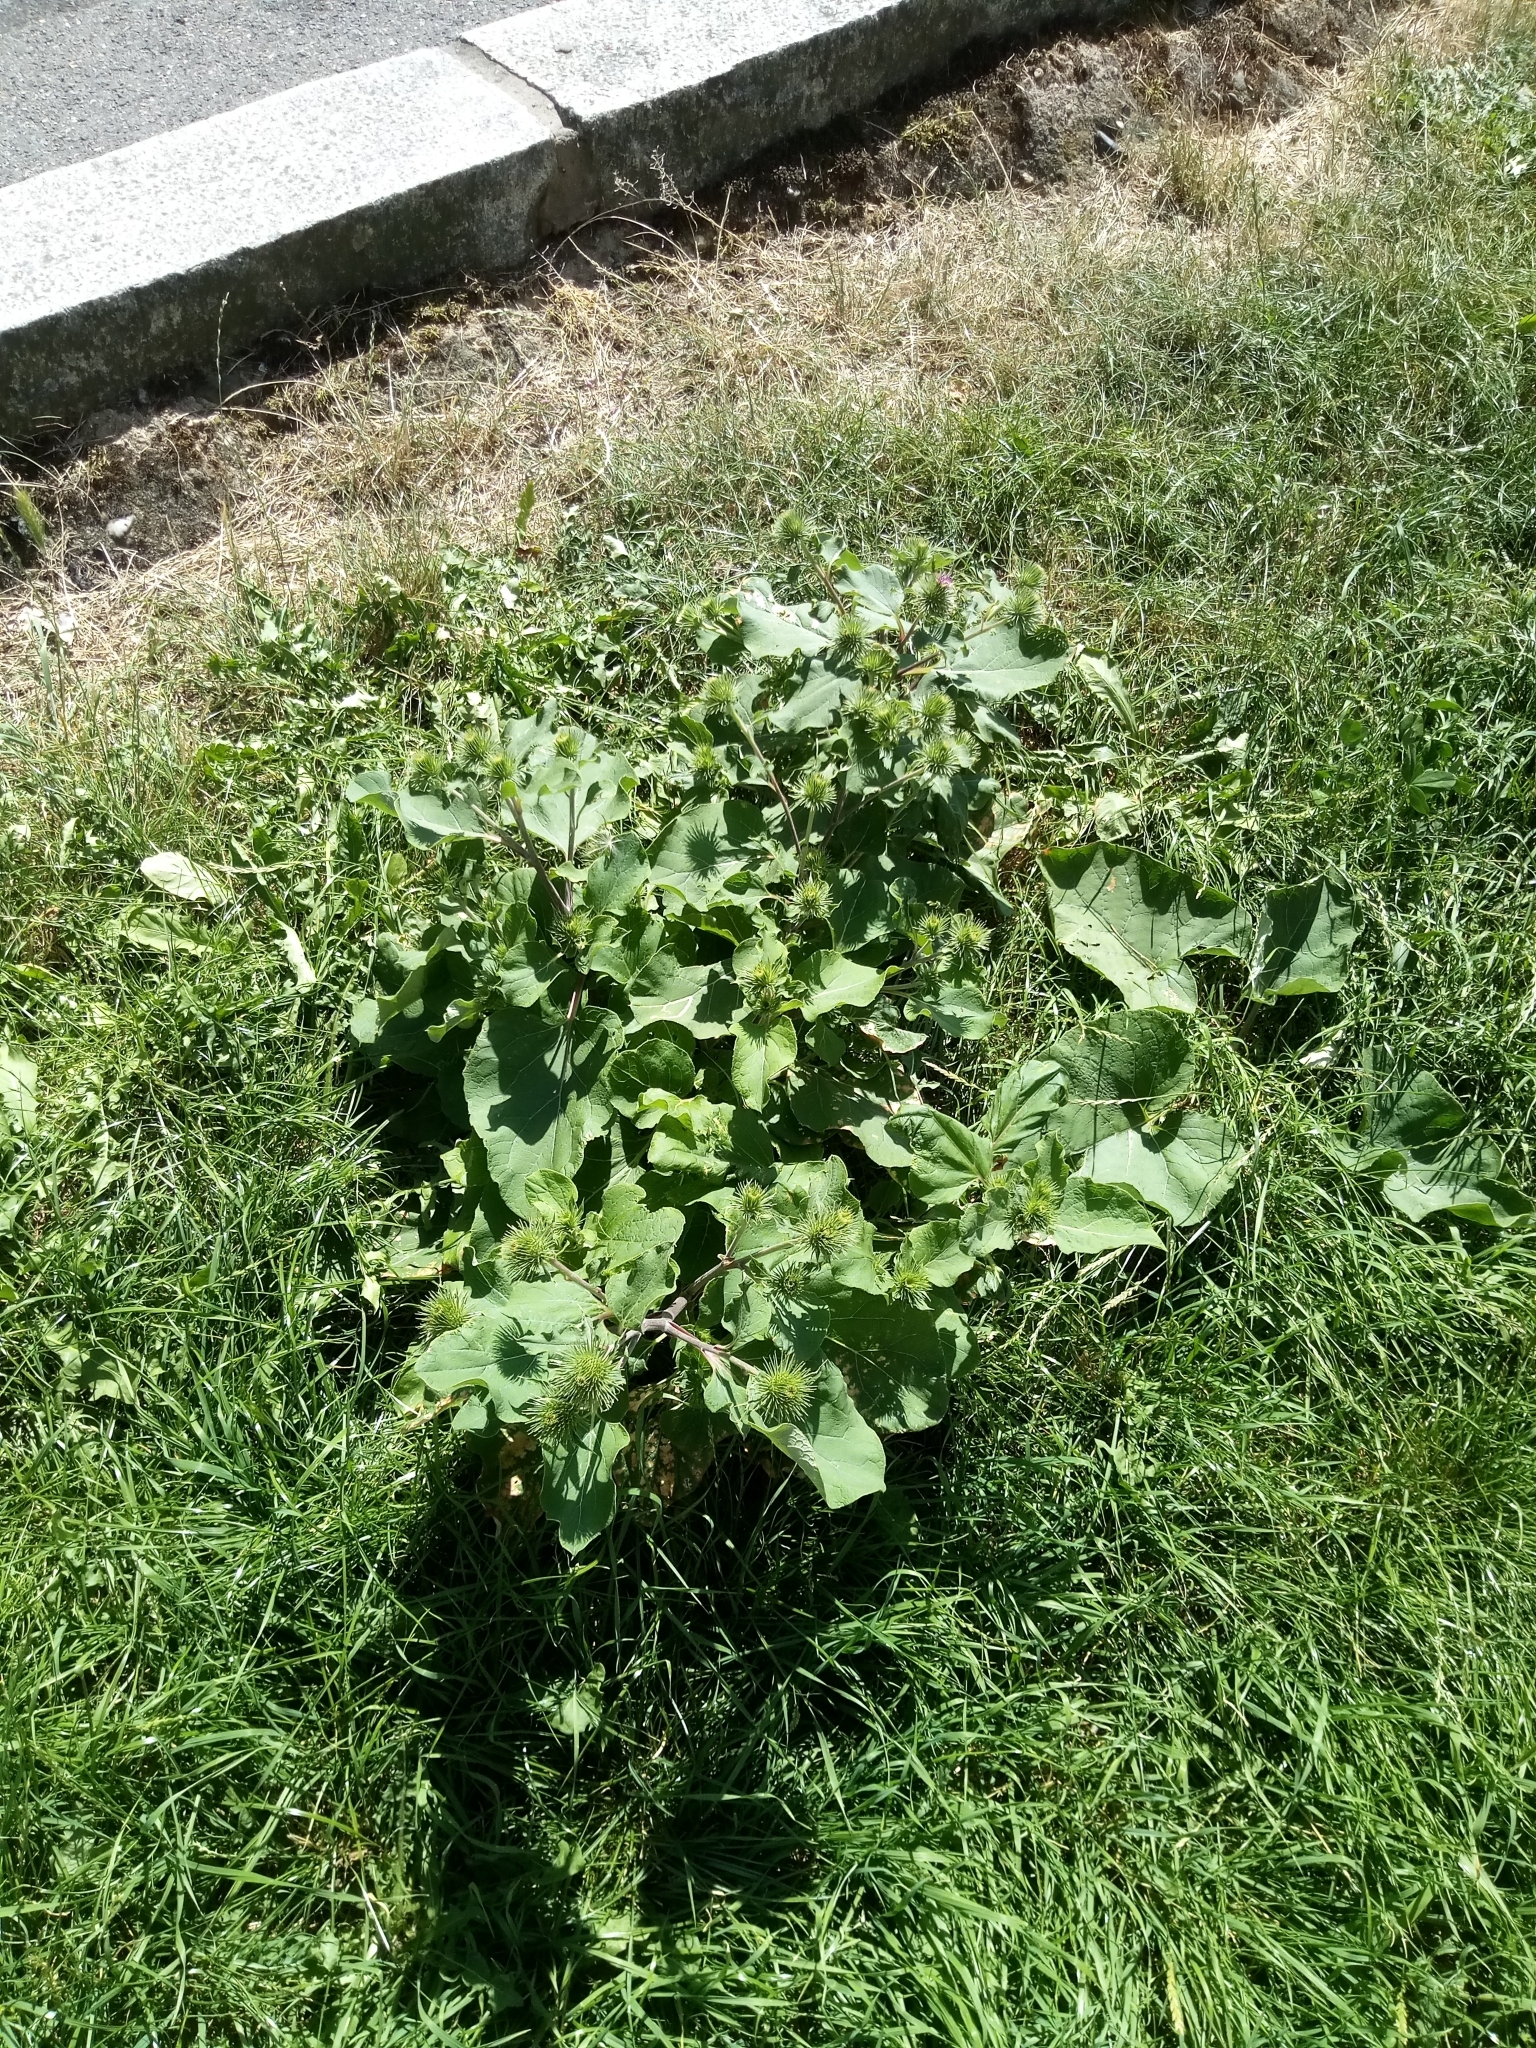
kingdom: Plantae
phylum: Tracheophyta
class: Magnoliopsida
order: Asterales
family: Asteraceae
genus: Arctium
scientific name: Arctium lappa
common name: Greater burdock
